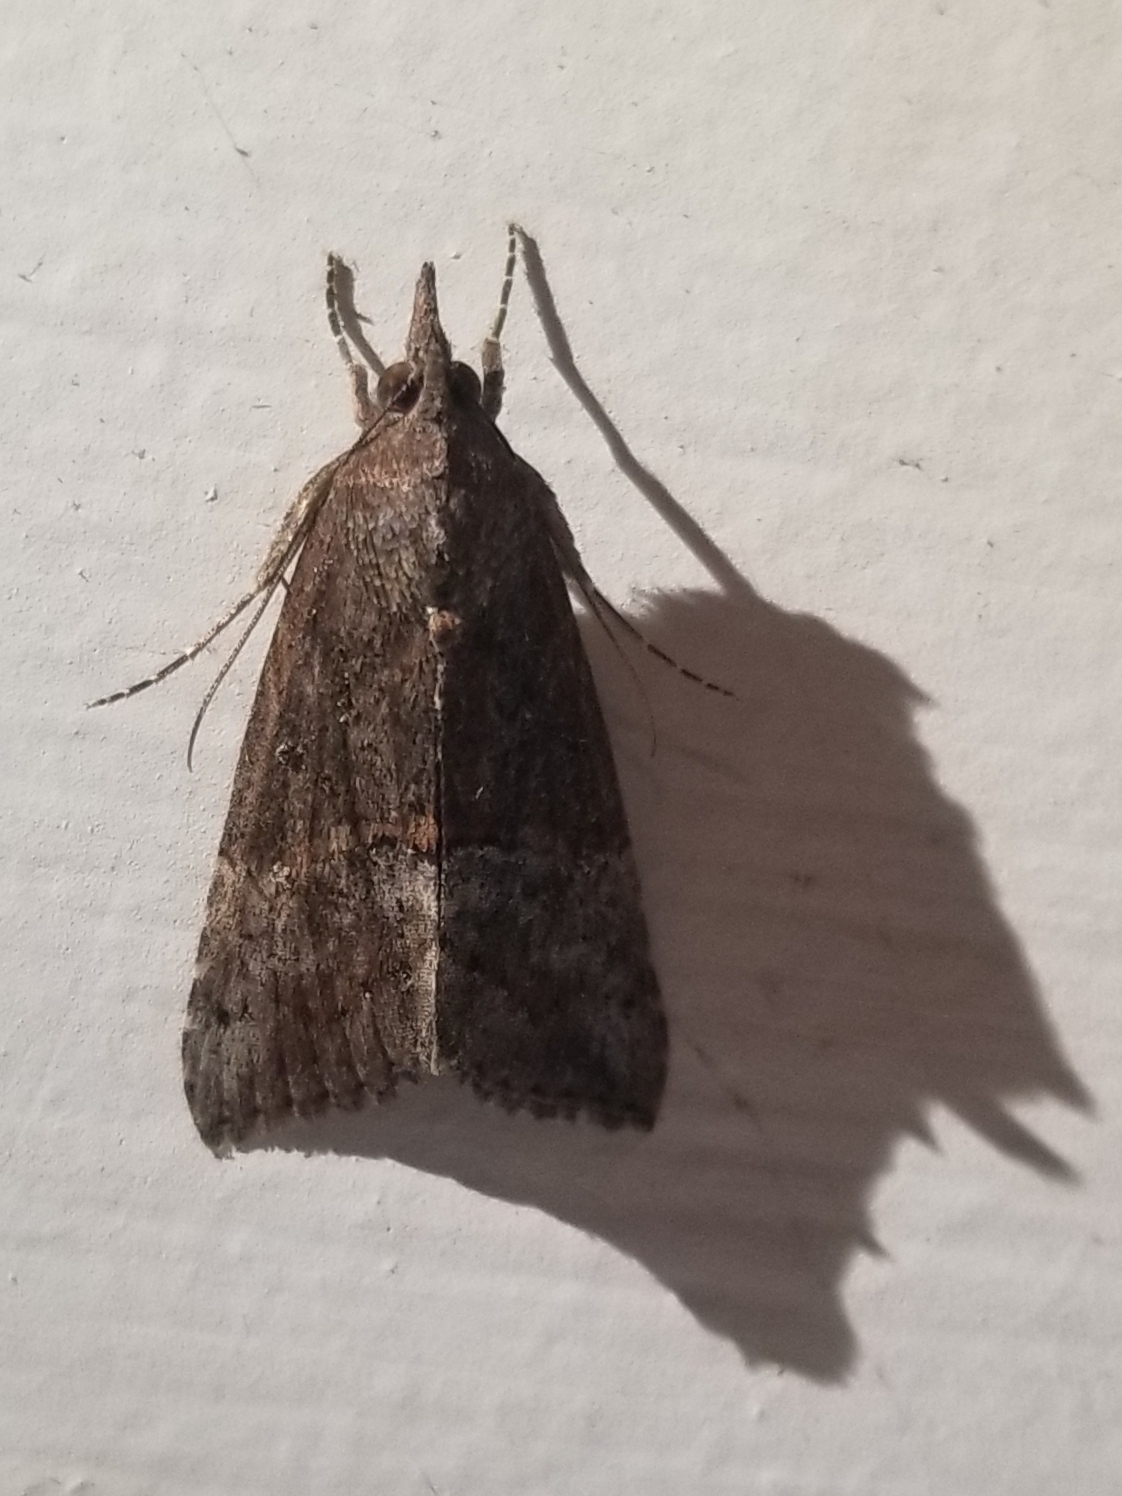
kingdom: Animalia
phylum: Arthropoda
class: Insecta
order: Lepidoptera
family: Erebidae
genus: Hypena
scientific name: Hypena scabra
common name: Green cloverworm
